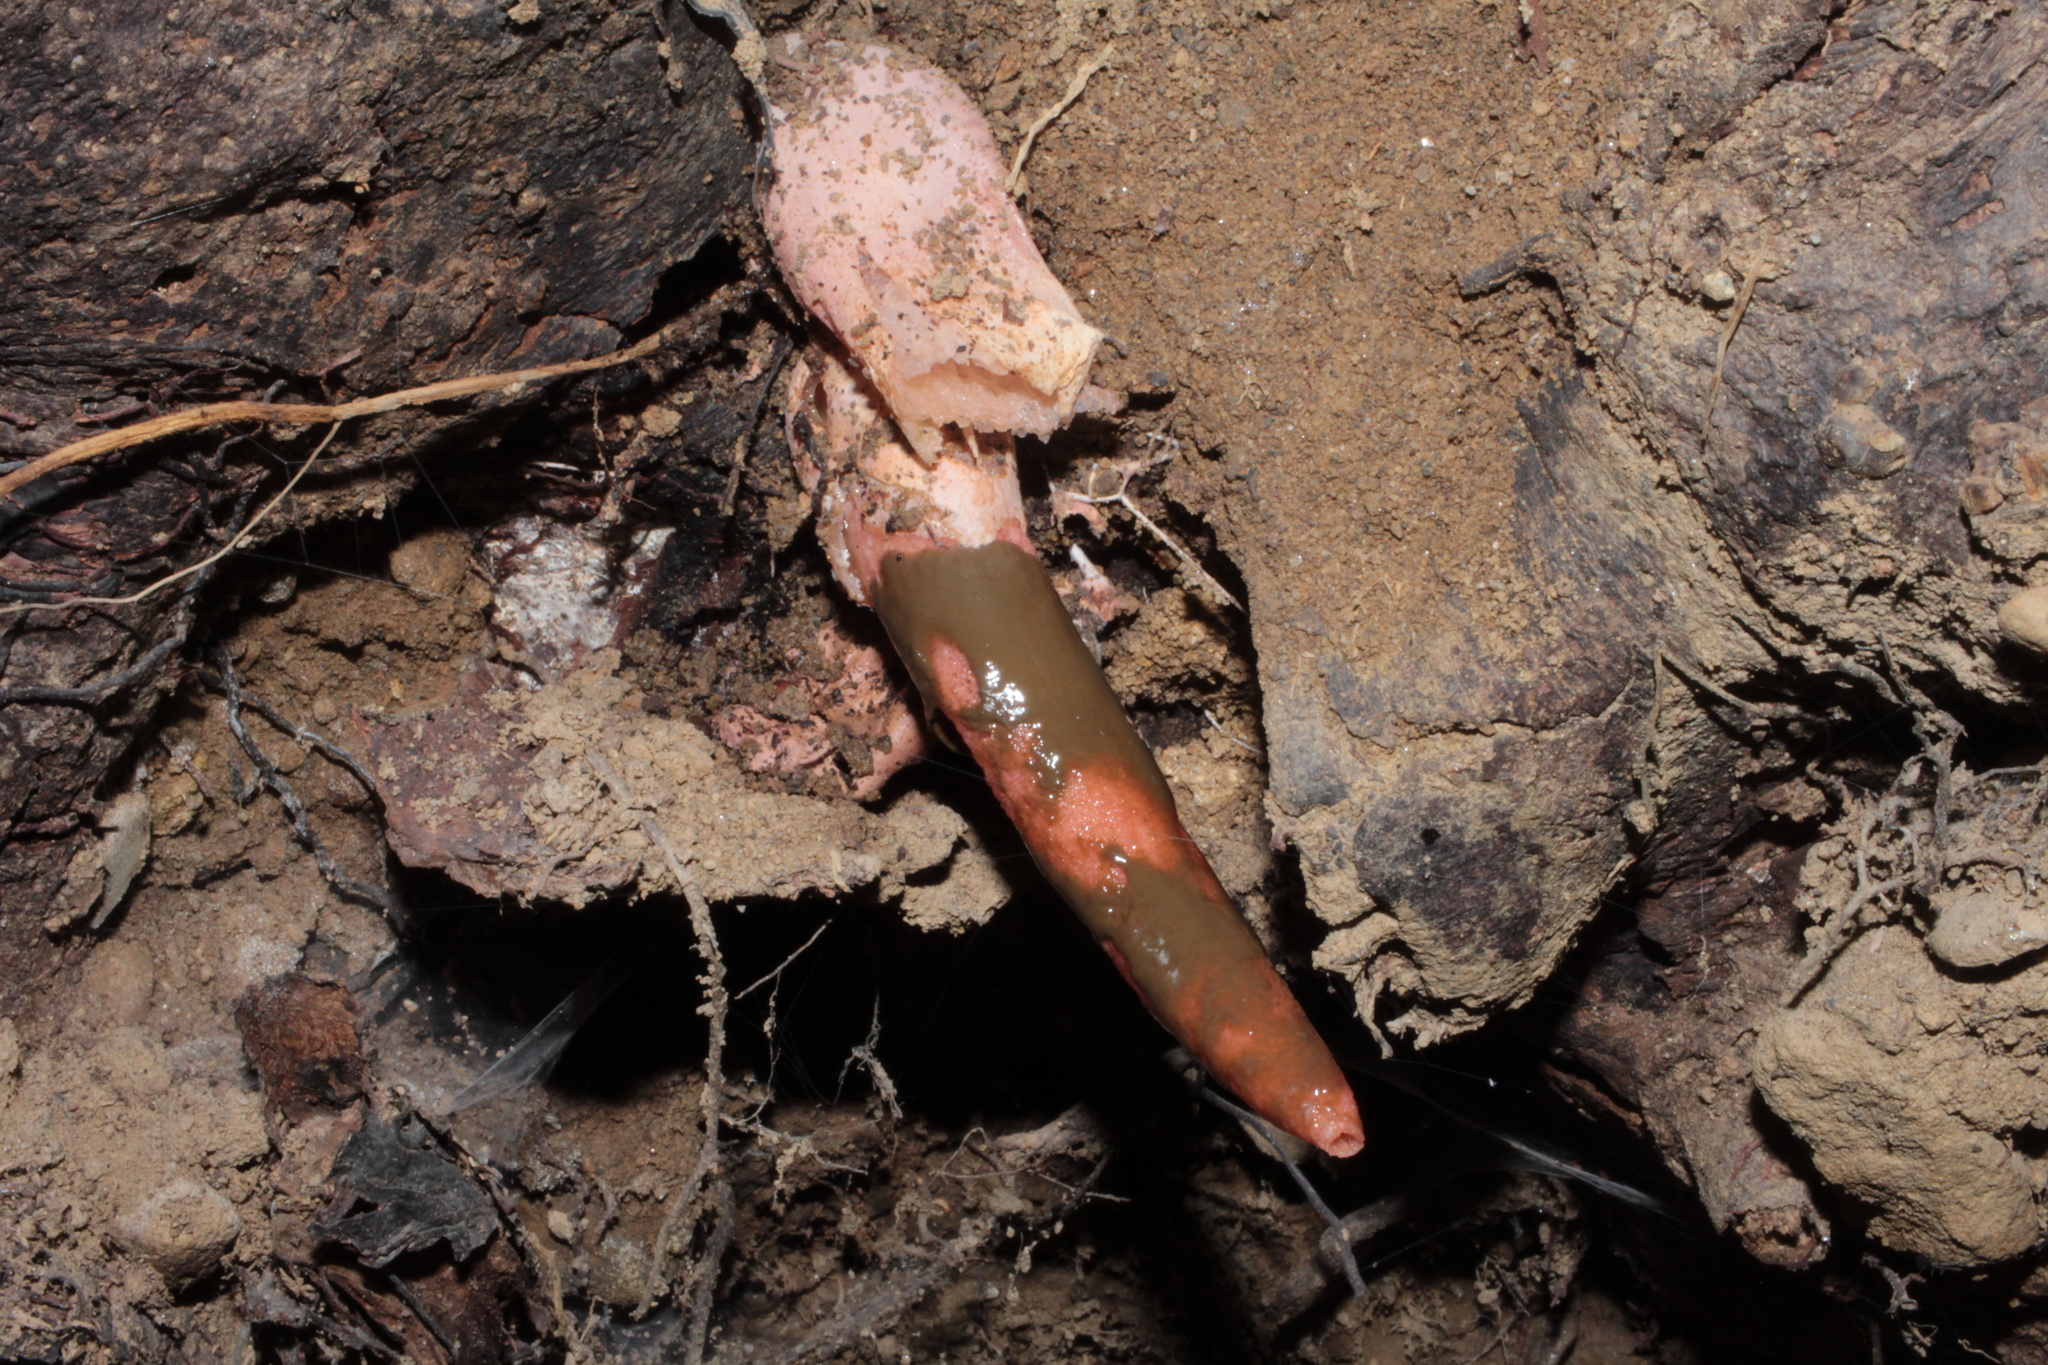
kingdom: Fungi
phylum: Basidiomycota
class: Agaricomycetes
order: Phallales
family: Phallaceae
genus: Mutinus
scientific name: Mutinus elegans
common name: Devil's dipstick
